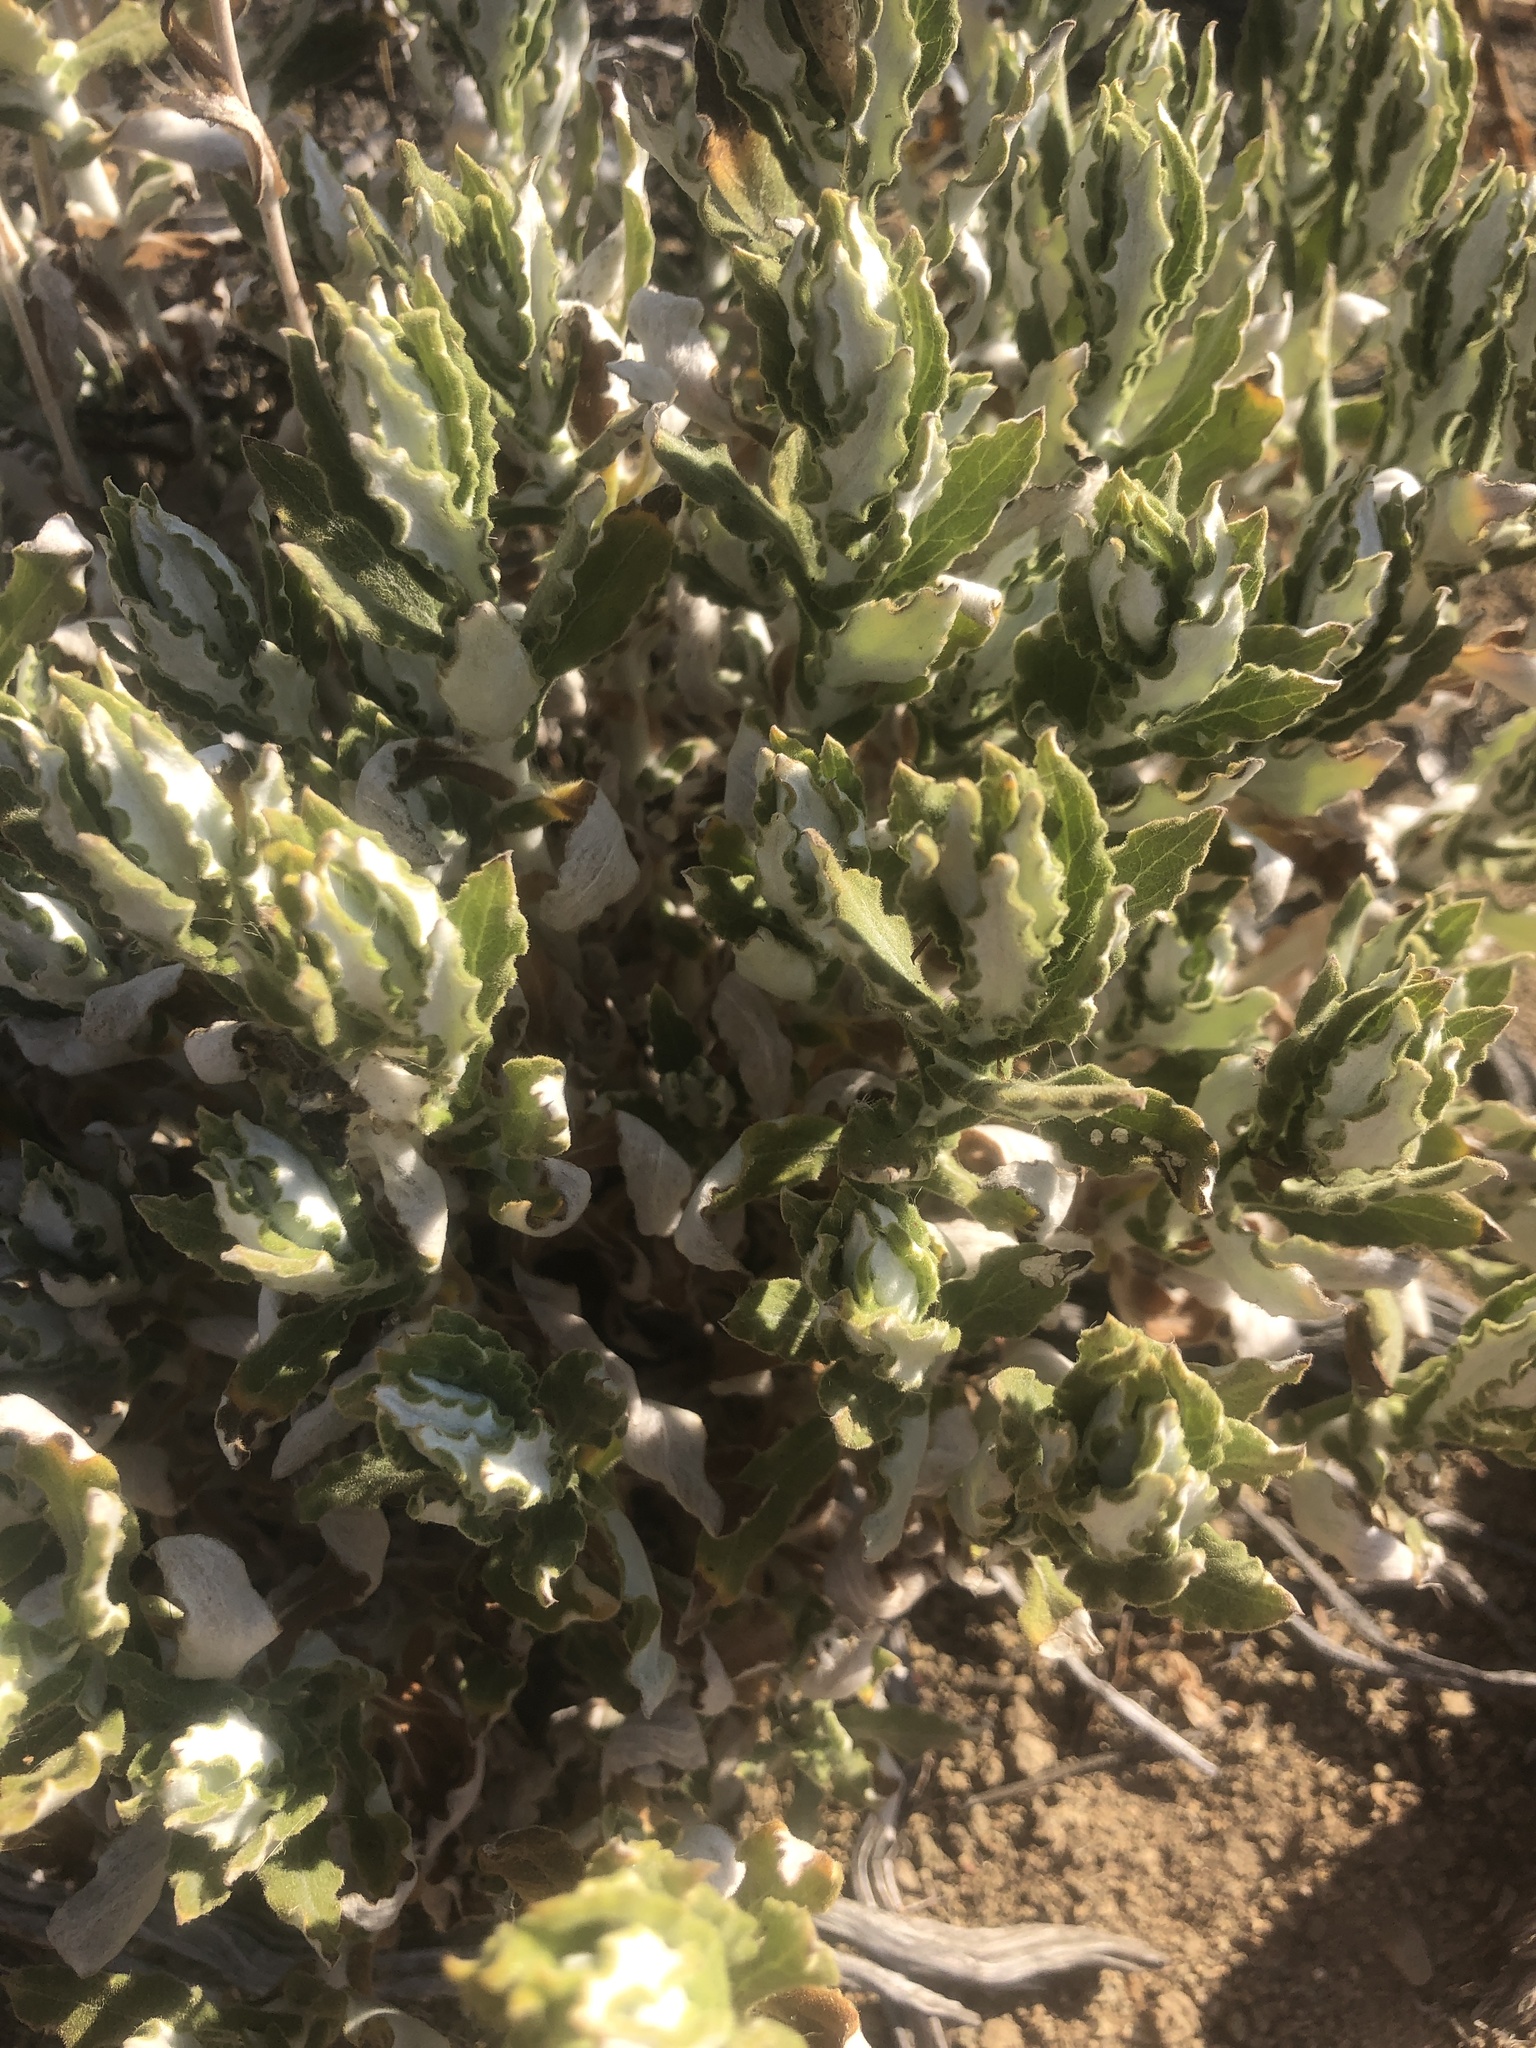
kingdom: Plantae
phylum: Tracheophyta
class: Magnoliopsida
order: Asterales
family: Asteraceae
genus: Pseudognaphalium
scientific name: Pseudognaphalium biolettii
